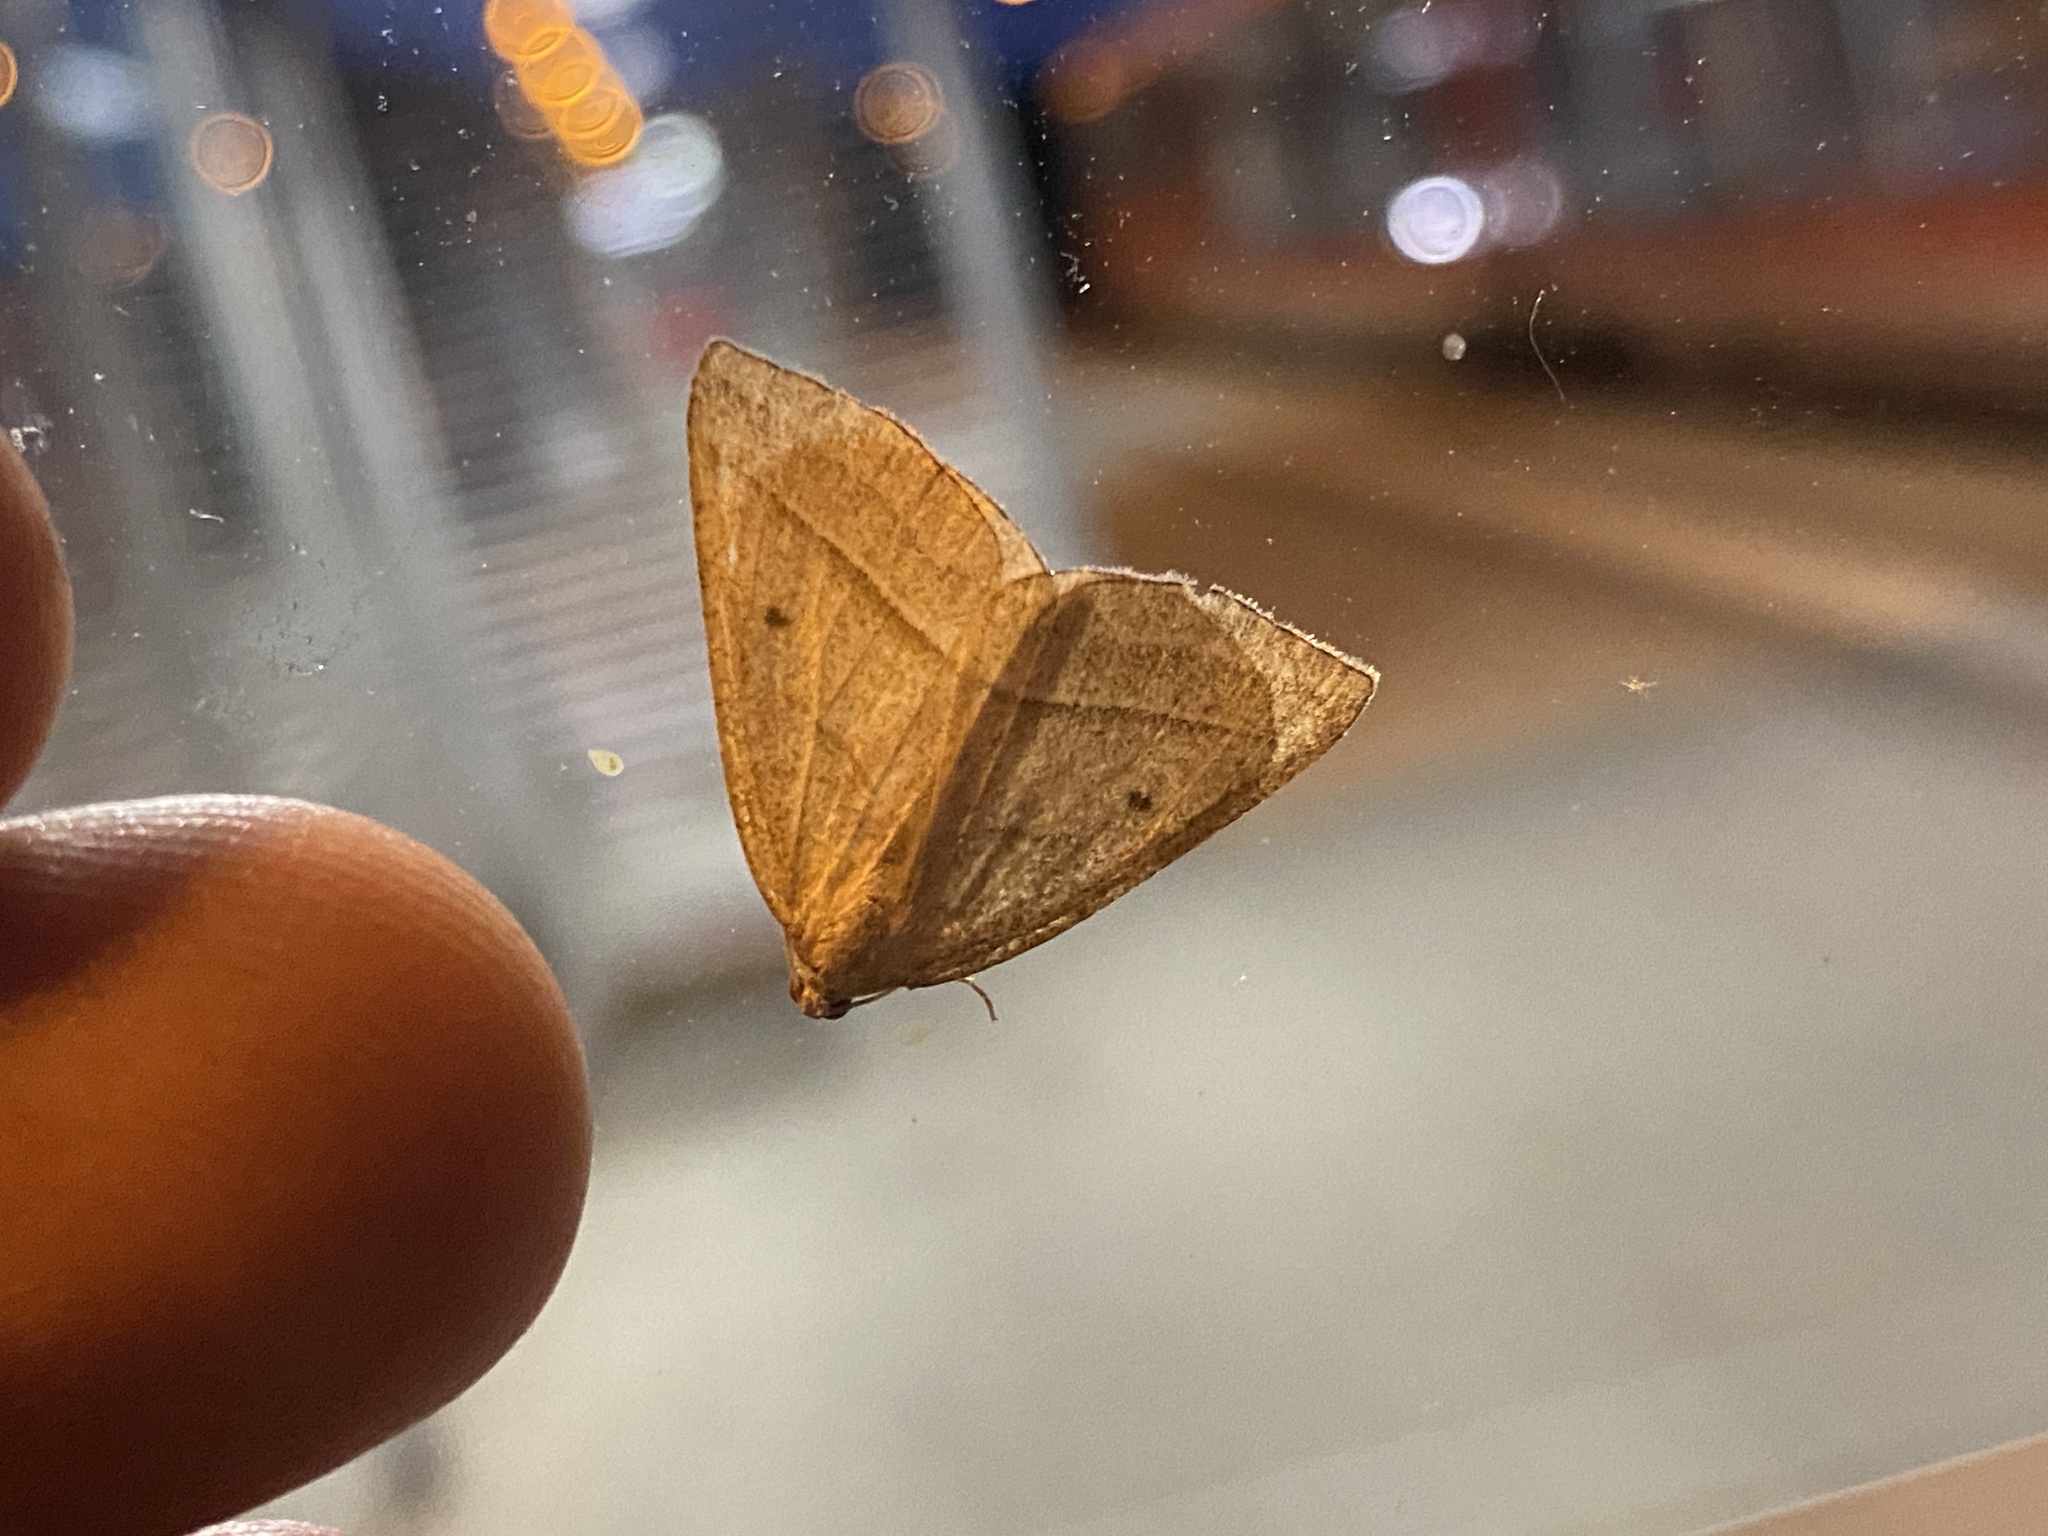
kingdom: Animalia
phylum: Arthropoda
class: Insecta
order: Lepidoptera
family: Pterophoridae
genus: Pterophorus
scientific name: Pterophorus Petrophora chlorosata
